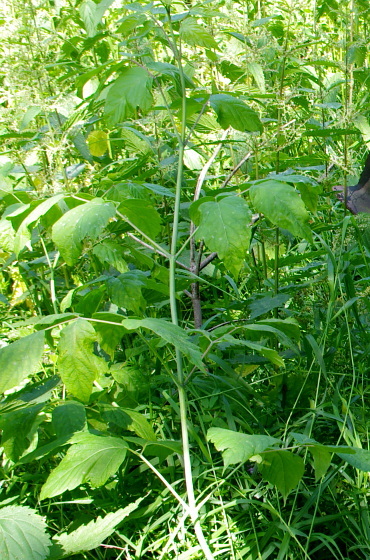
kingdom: Plantae
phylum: Tracheophyta
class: Magnoliopsida
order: Sapindales
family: Sapindaceae
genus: Acer
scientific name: Acer negundo
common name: Ashleaf maple
